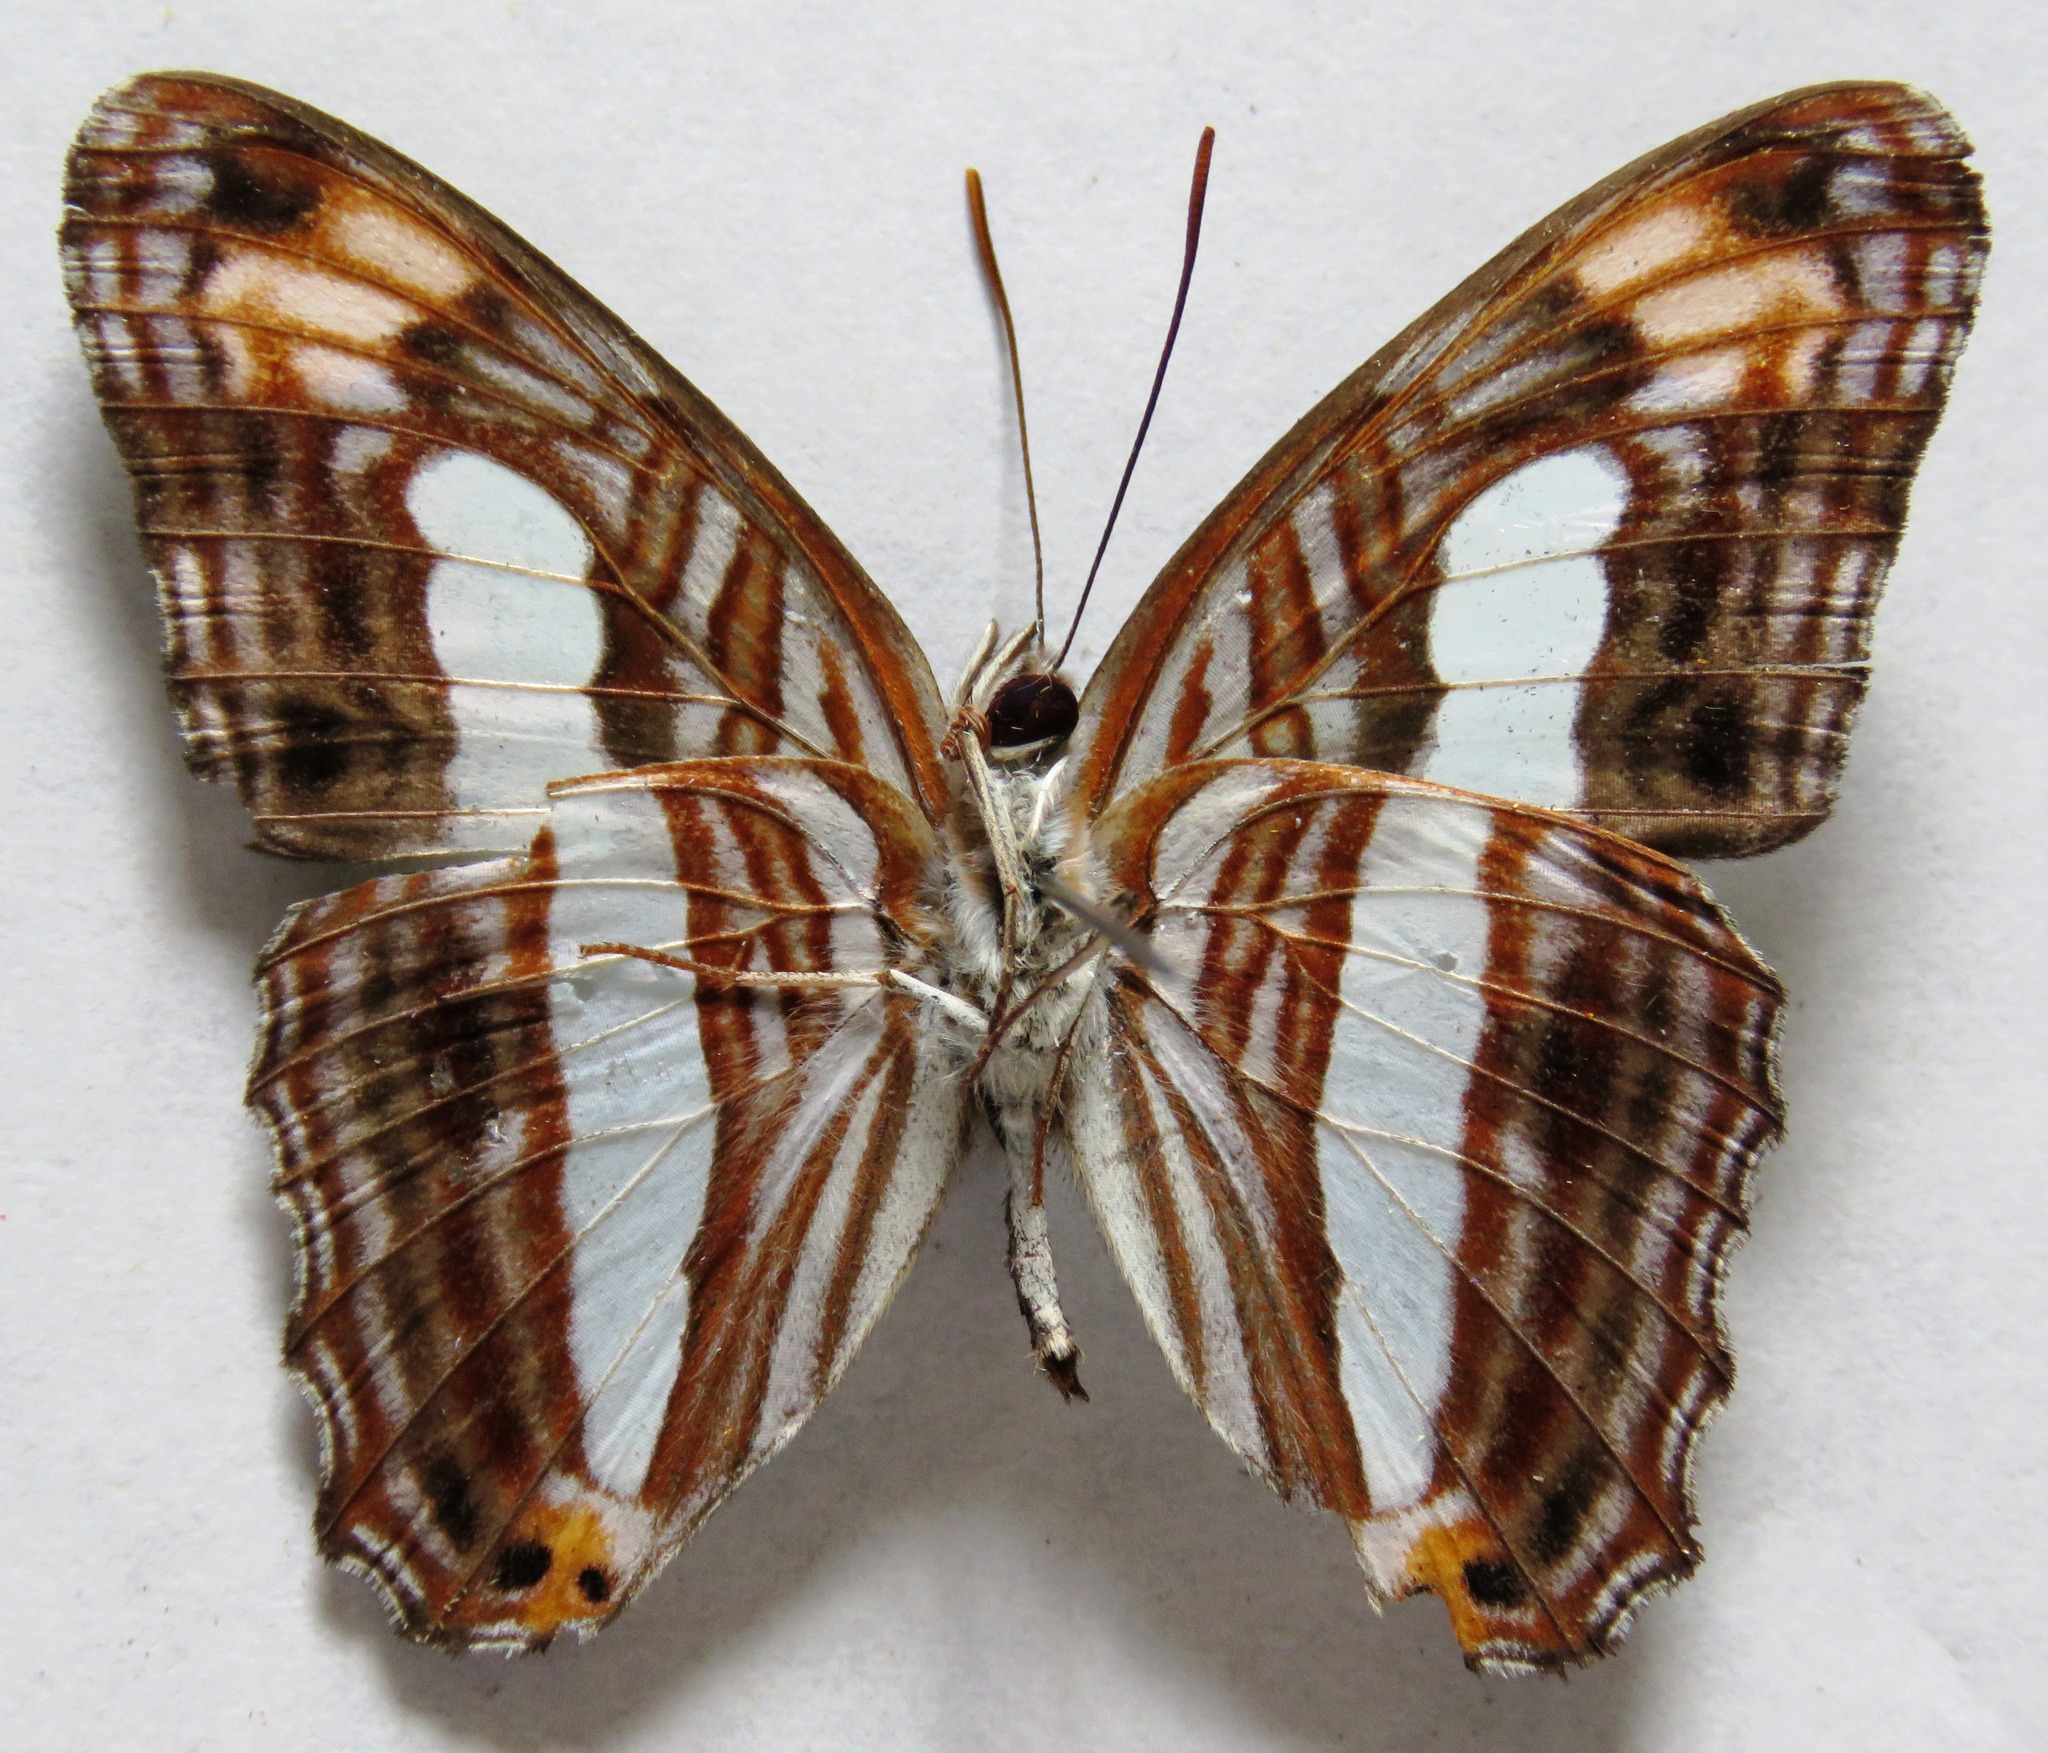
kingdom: Animalia
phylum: Arthropoda
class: Insecta
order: Lepidoptera
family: Nymphalidae
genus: Limenitis
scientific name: Limenitis iphiclus
